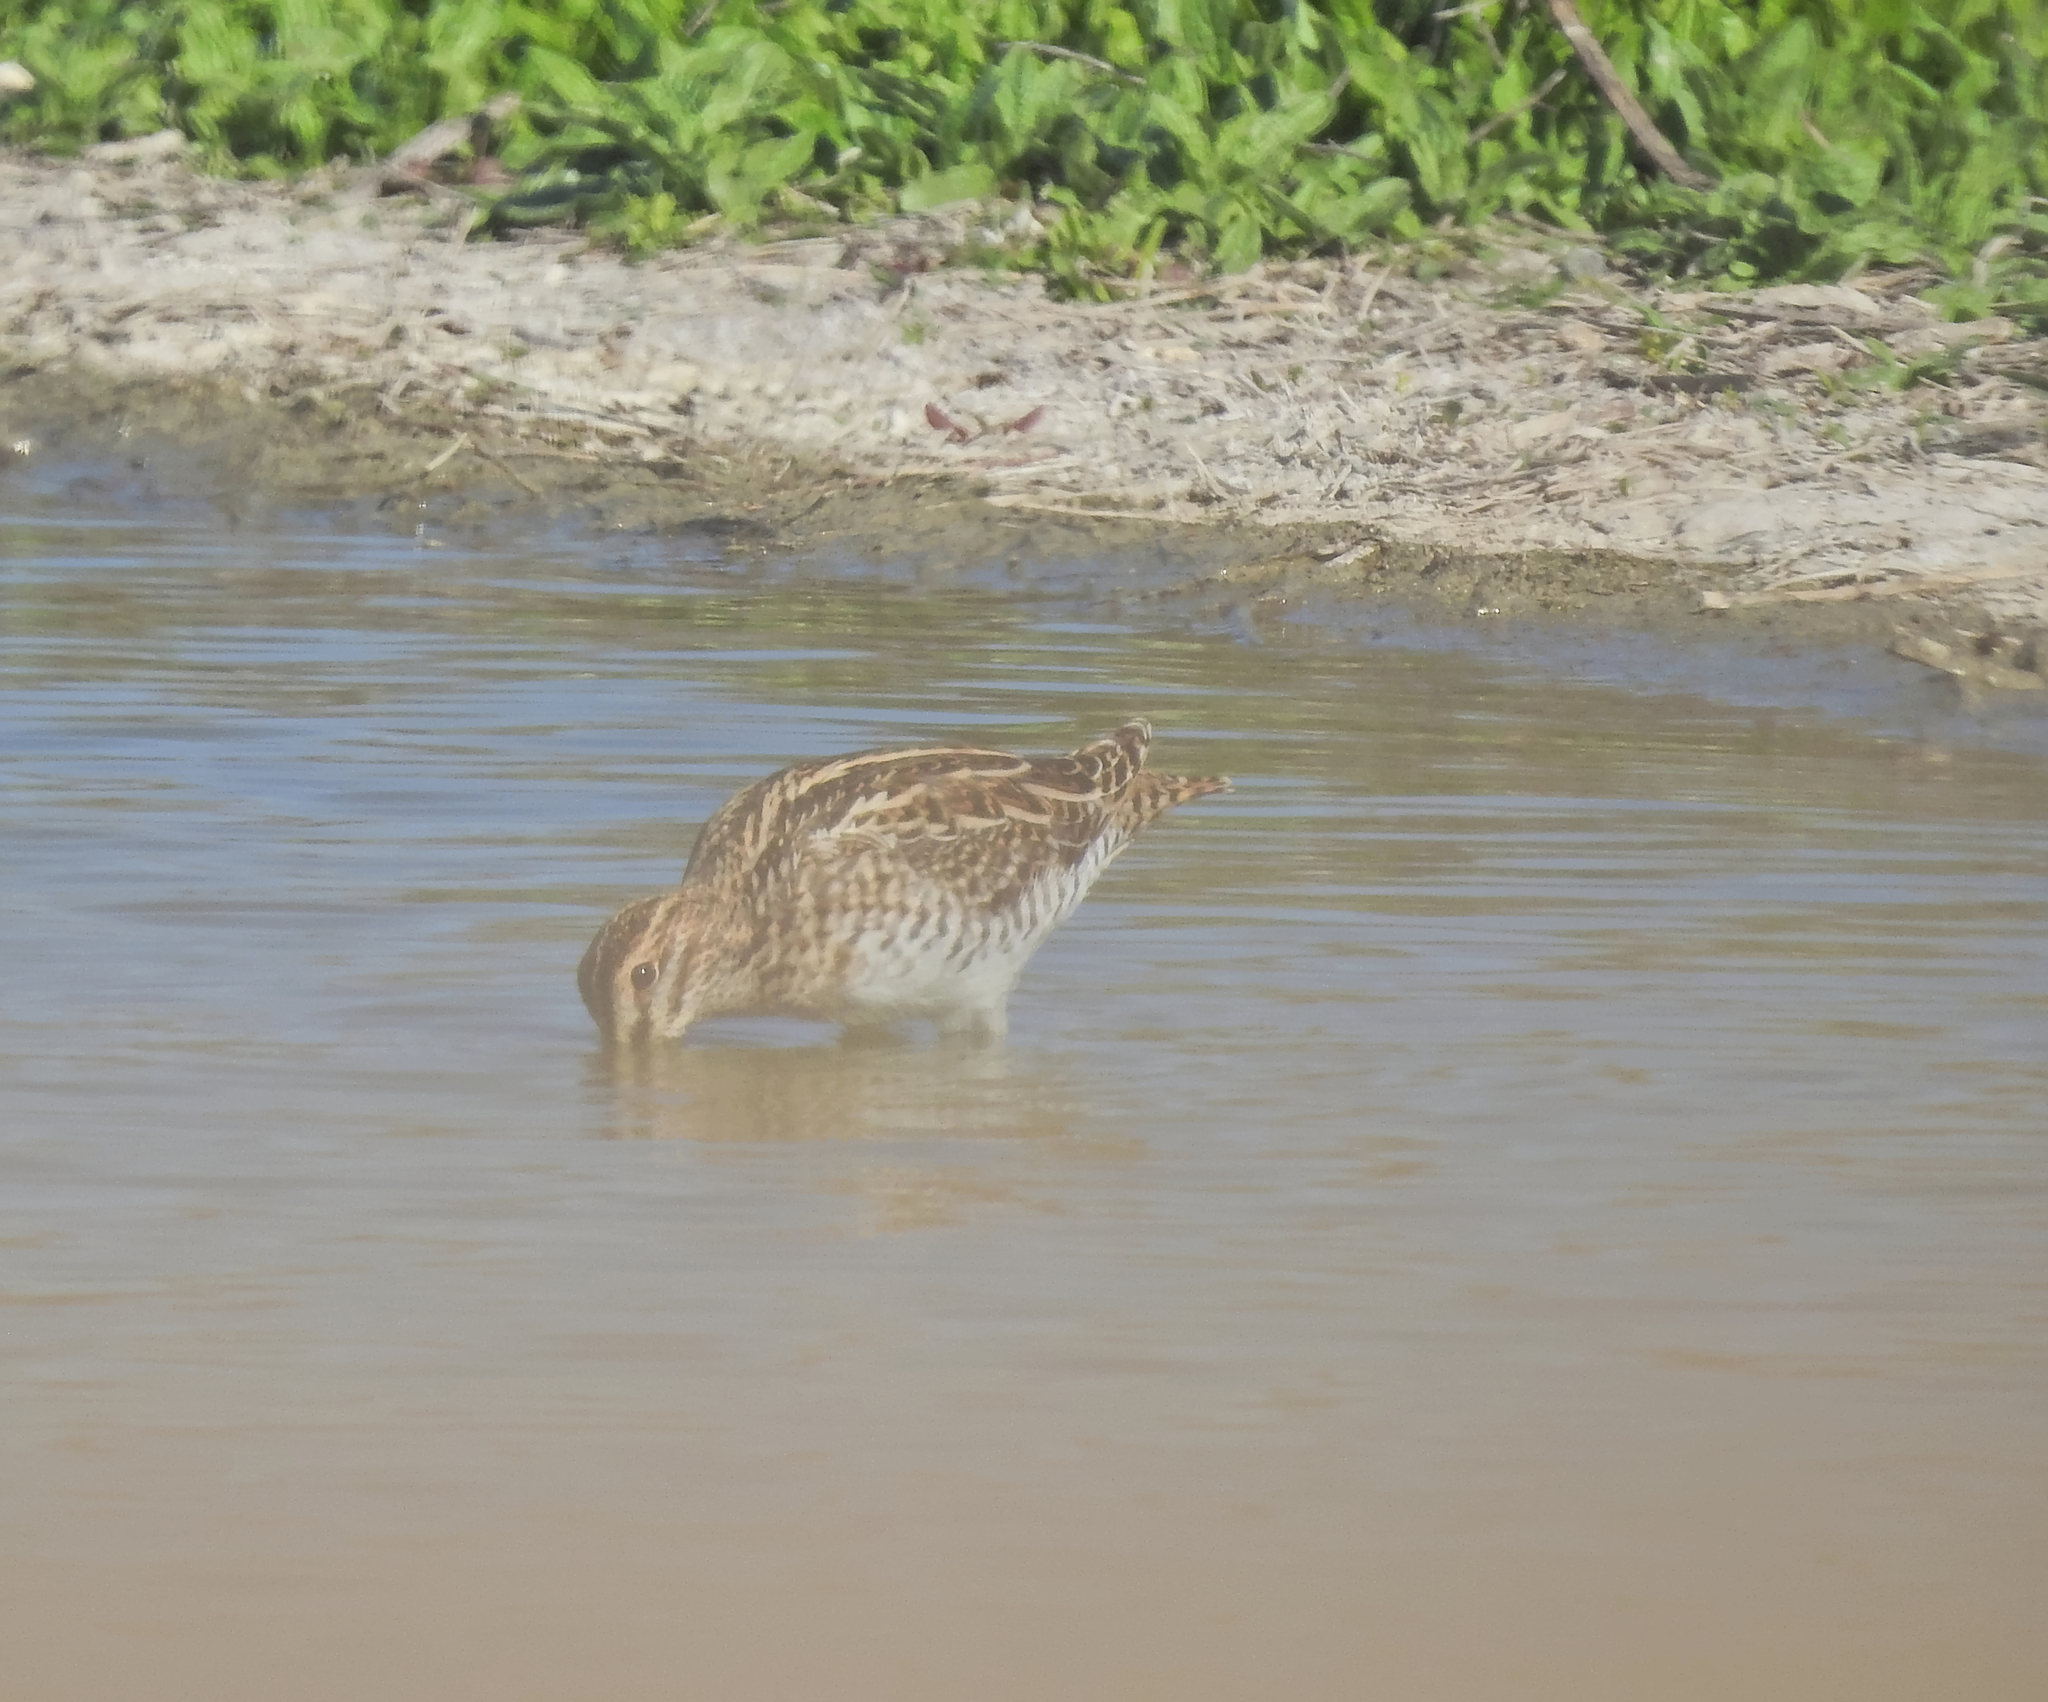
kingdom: Animalia
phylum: Chordata
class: Aves
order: Charadriiformes
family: Scolopacidae
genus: Gallinago
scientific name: Gallinago gallinago
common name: Common snipe
